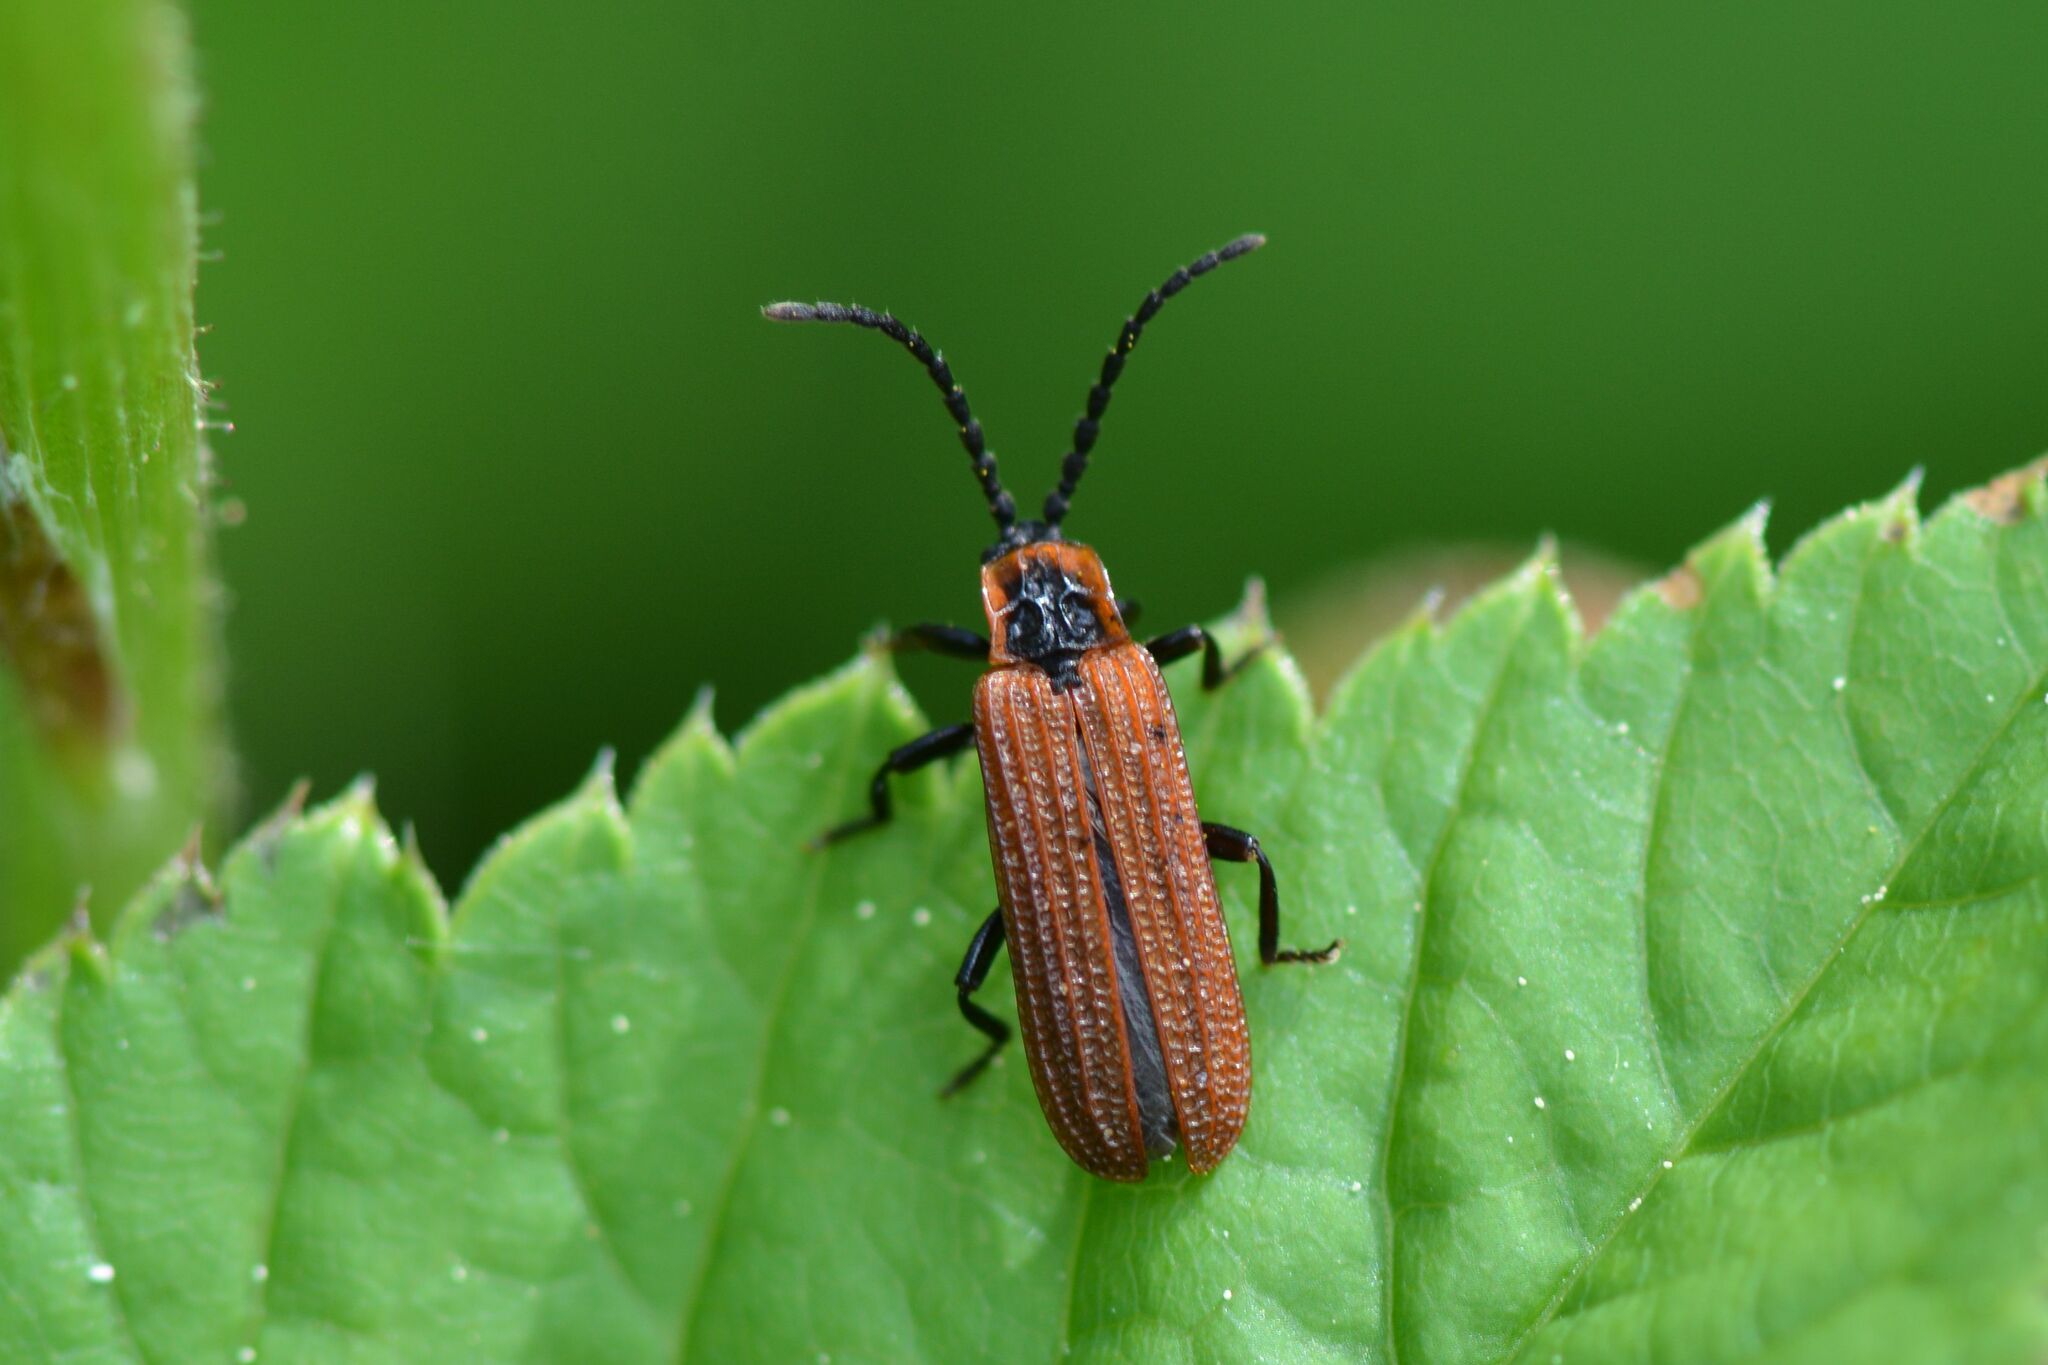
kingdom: Animalia
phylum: Arthropoda
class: Insecta
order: Coleoptera
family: Lycidae
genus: Erotides
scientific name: Erotides cosnardi
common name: Cosnard's net-winged beetle
